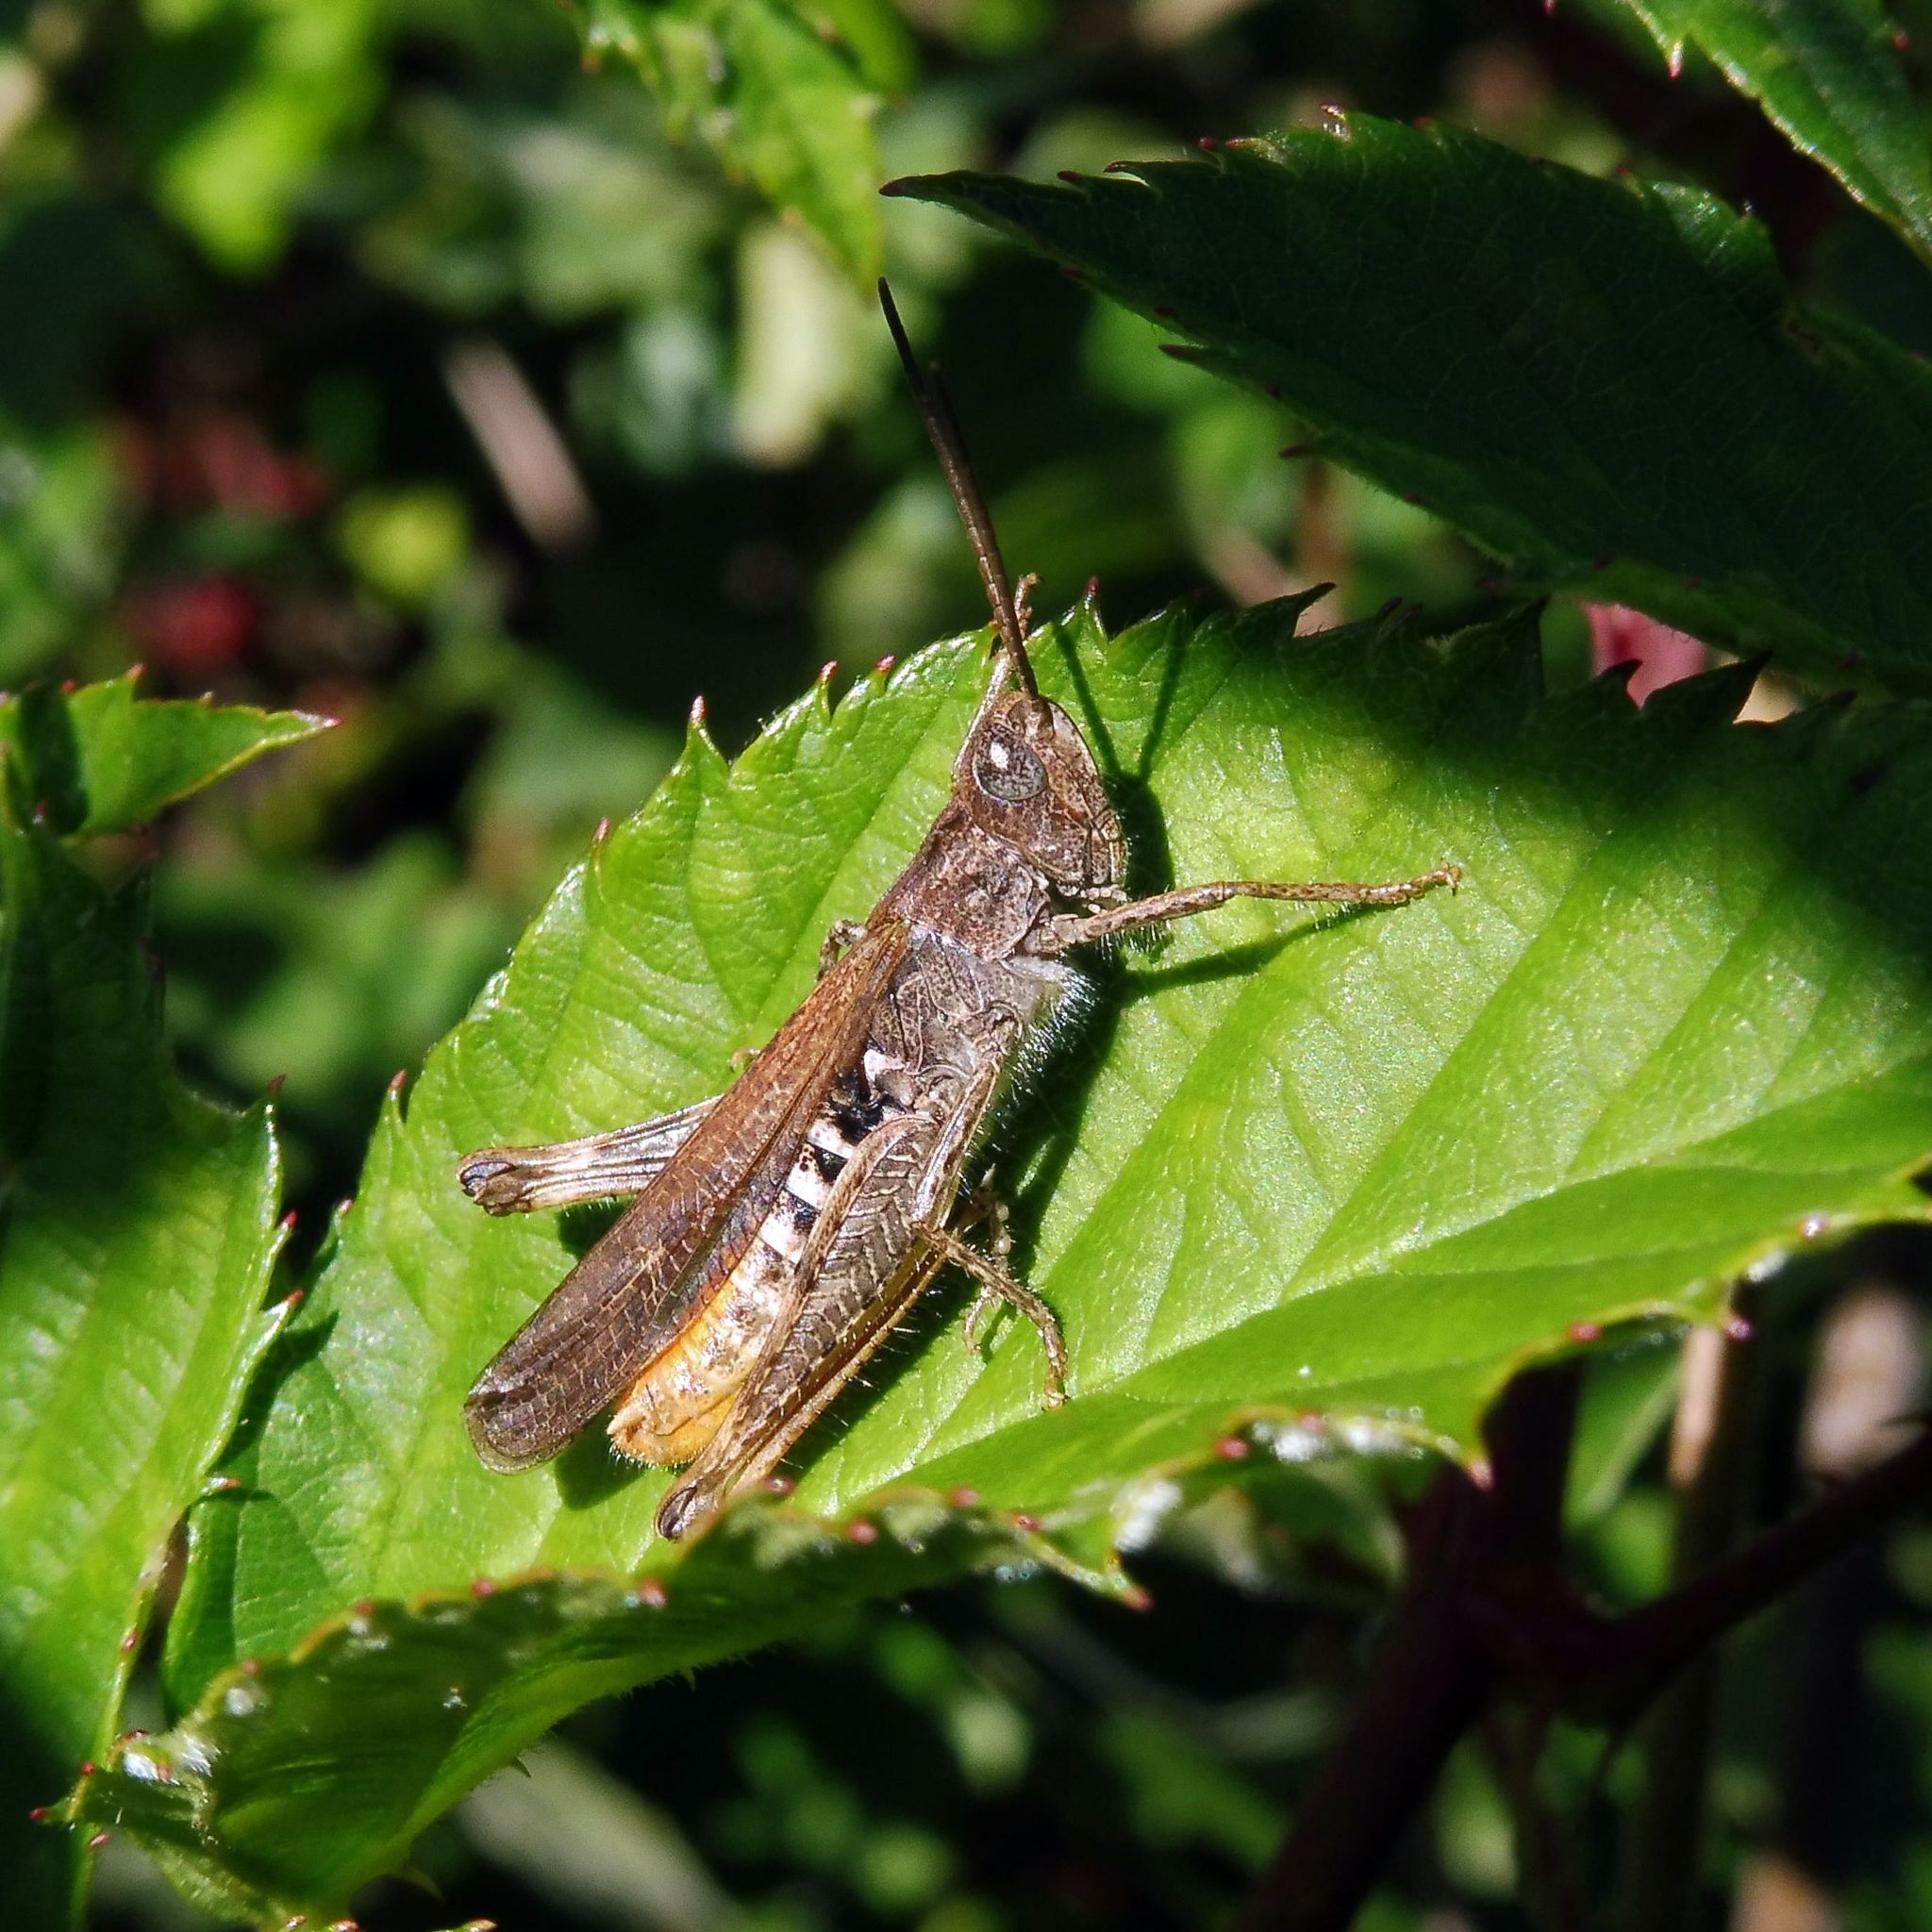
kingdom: Animalia
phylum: Arthropoda
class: Insecta
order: Orthoptera
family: Acrididae
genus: Chorthippus
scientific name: Chorthippus brunneus
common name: Field grasshopper
